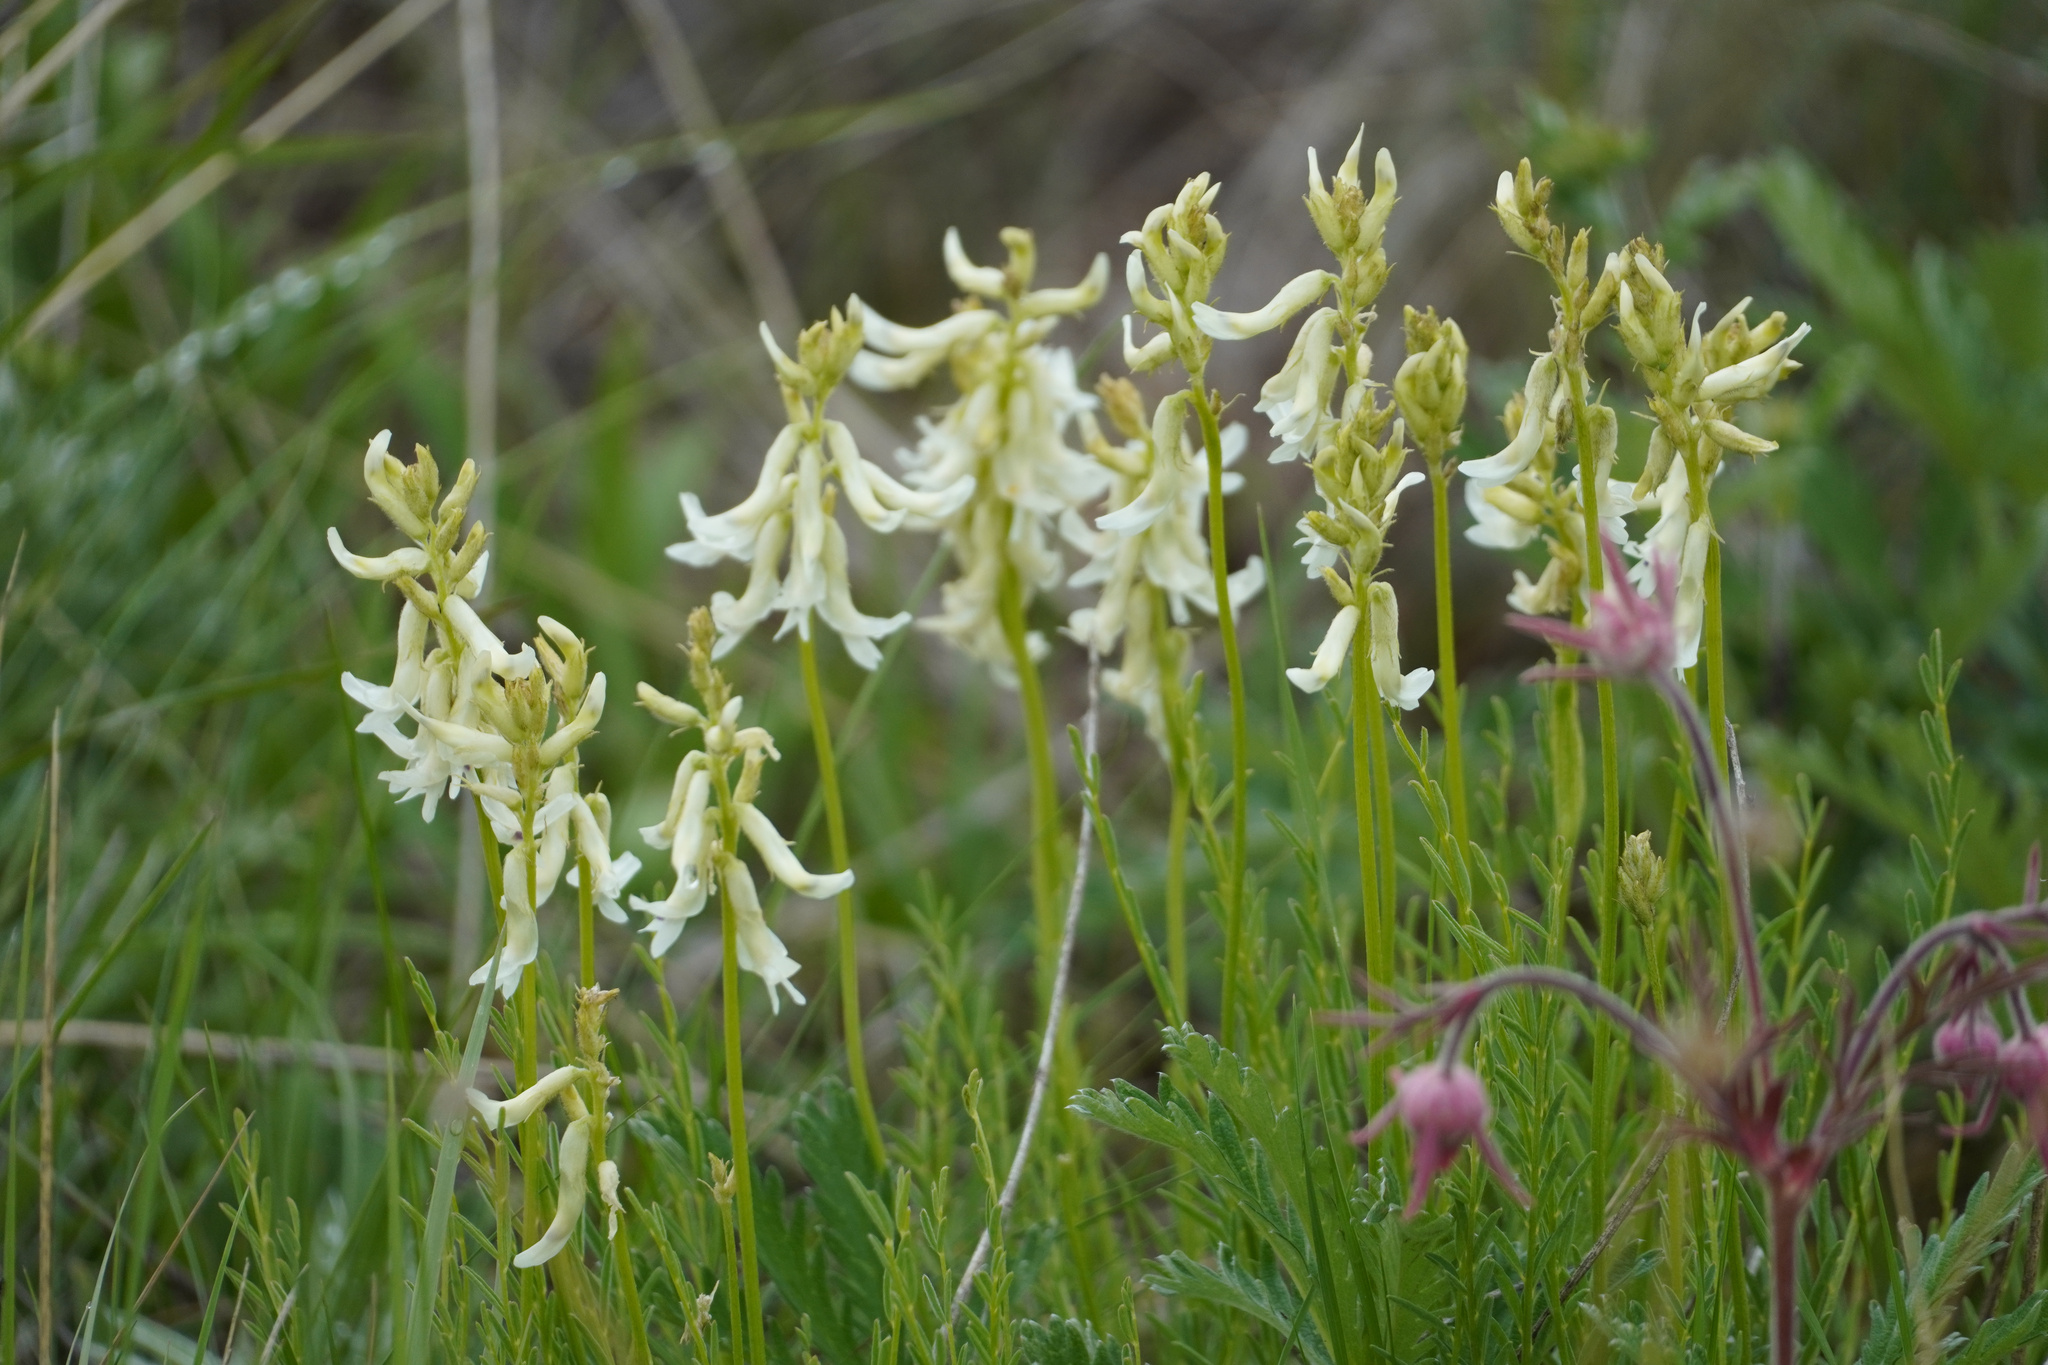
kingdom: Plantae
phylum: Tracheophyta
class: Magnoliopsida
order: Fabales
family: Fabaceae
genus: Astragalus
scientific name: Astragalus sheldonii
